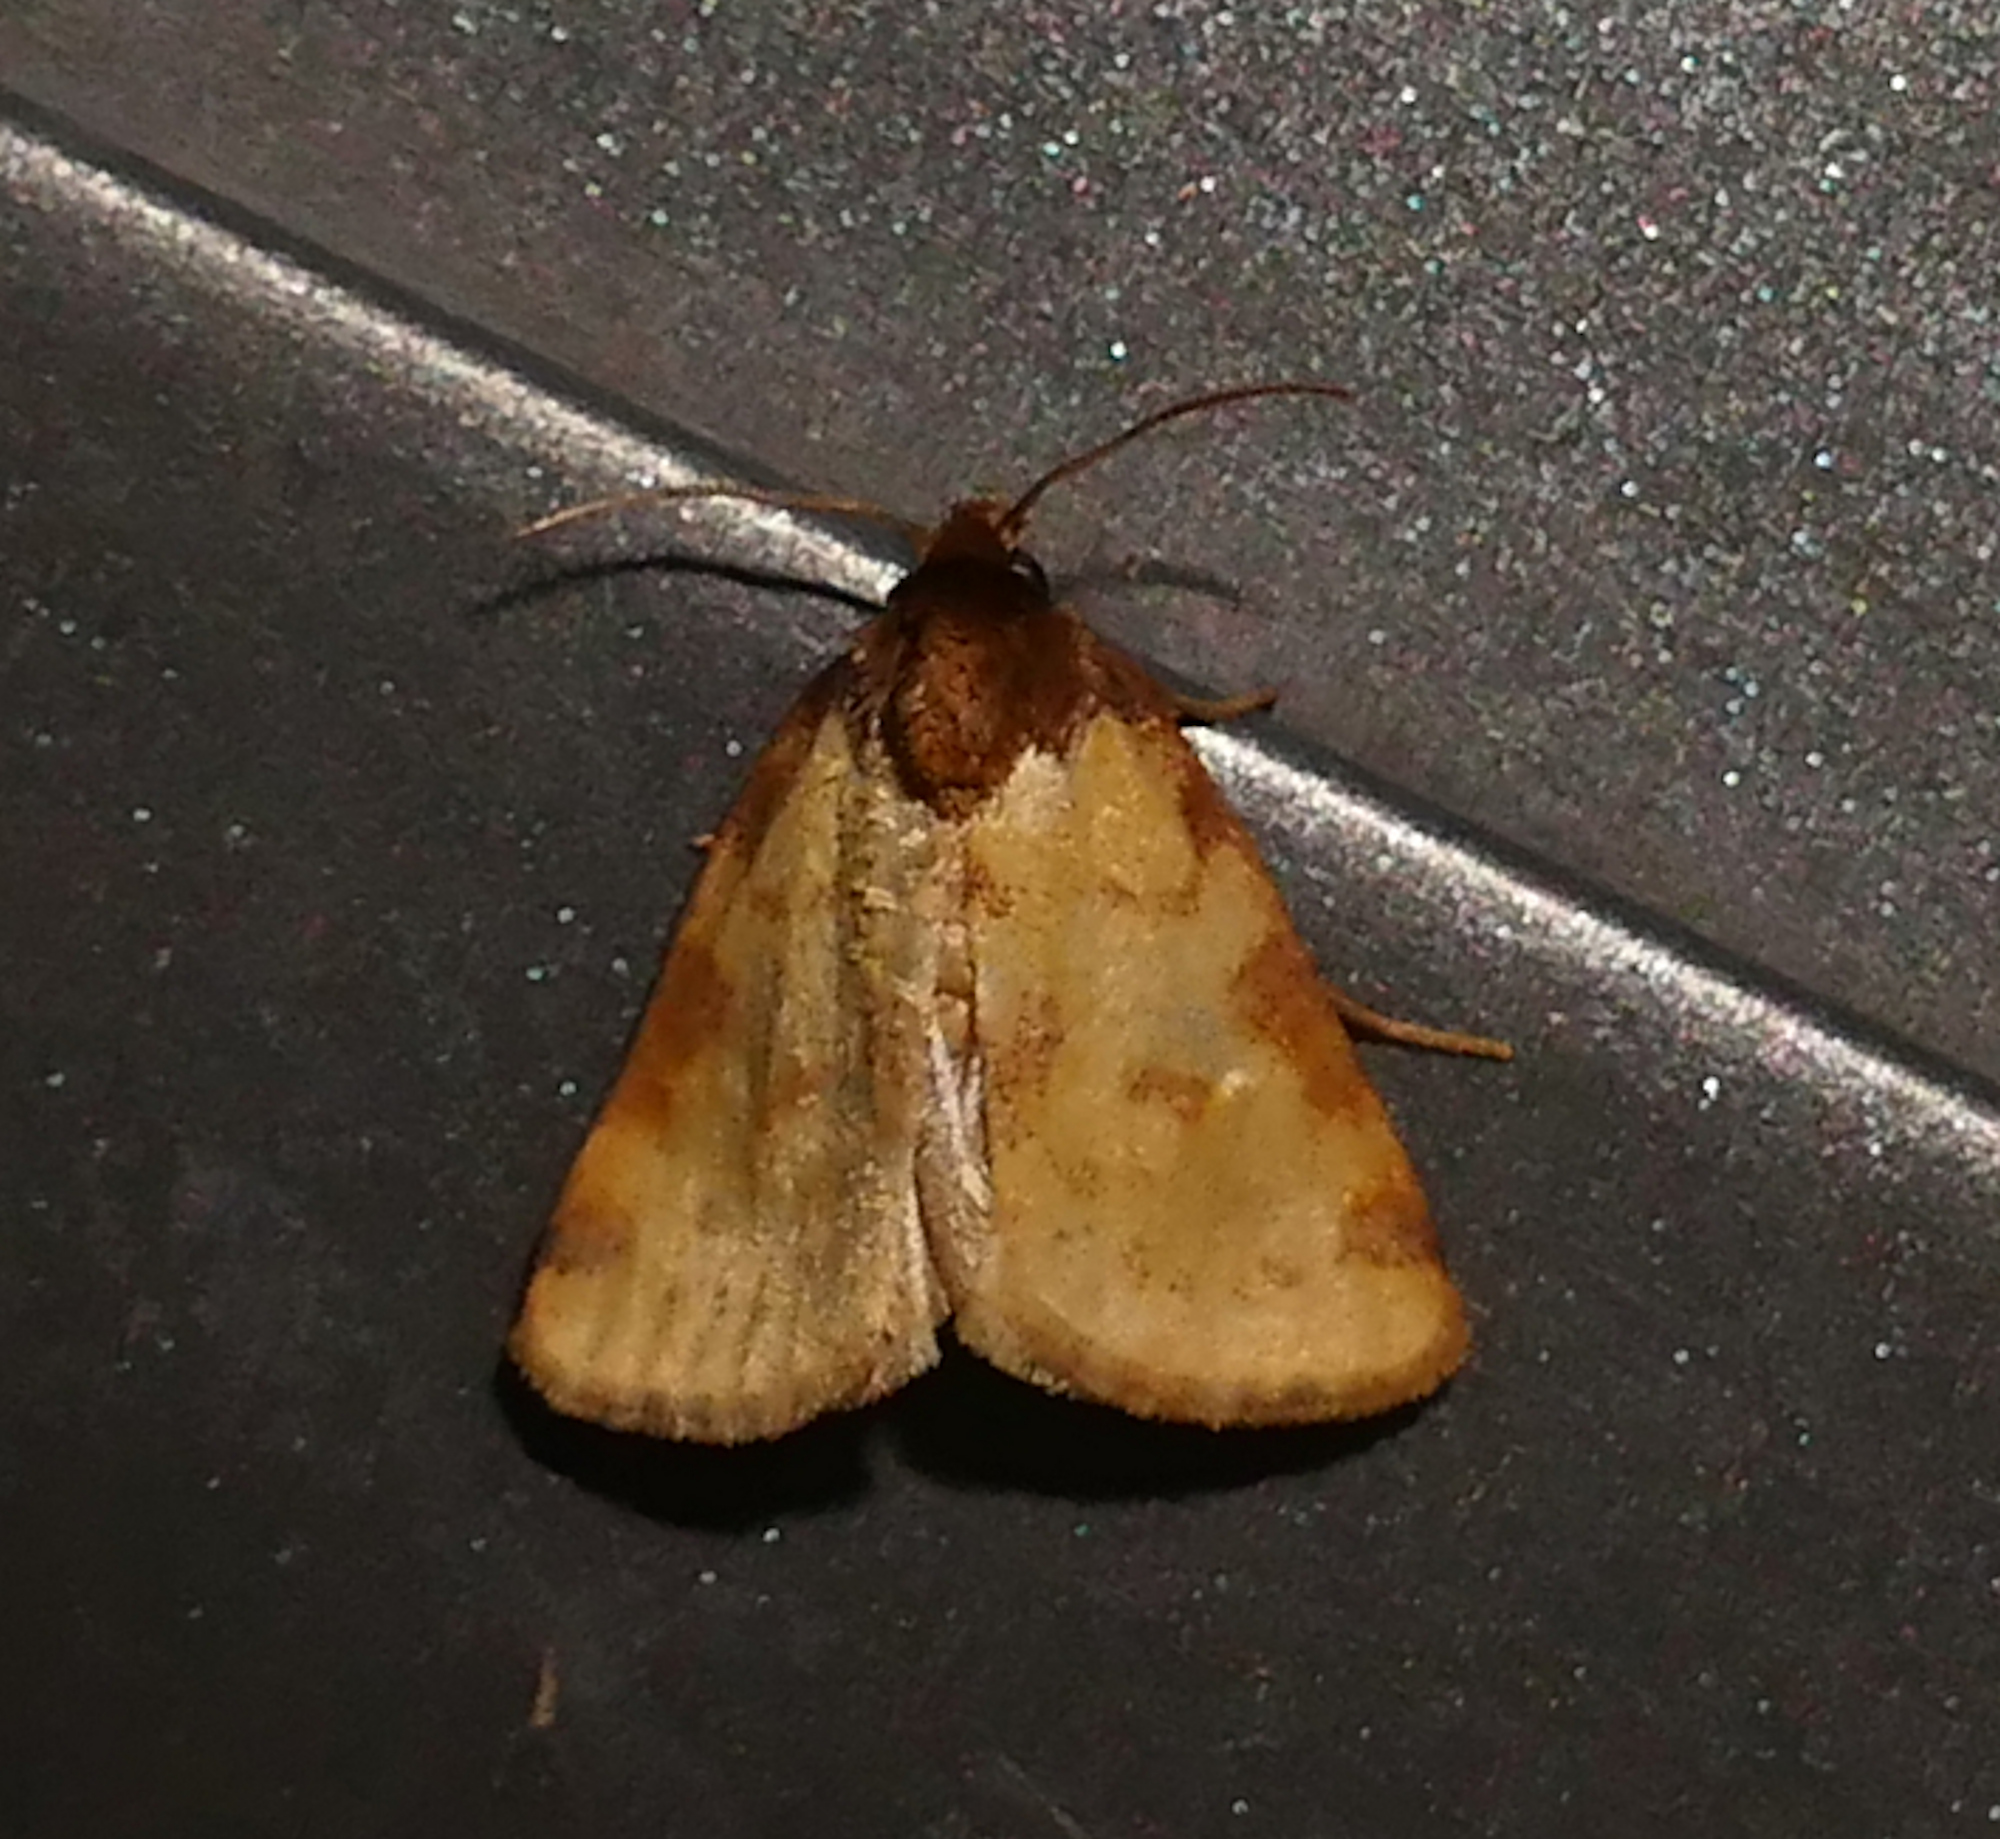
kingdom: Animalia
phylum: Arthropoda
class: Insecta
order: Lepidoptera
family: Noctuidae
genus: Azenia
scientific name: Azenia obtusa
